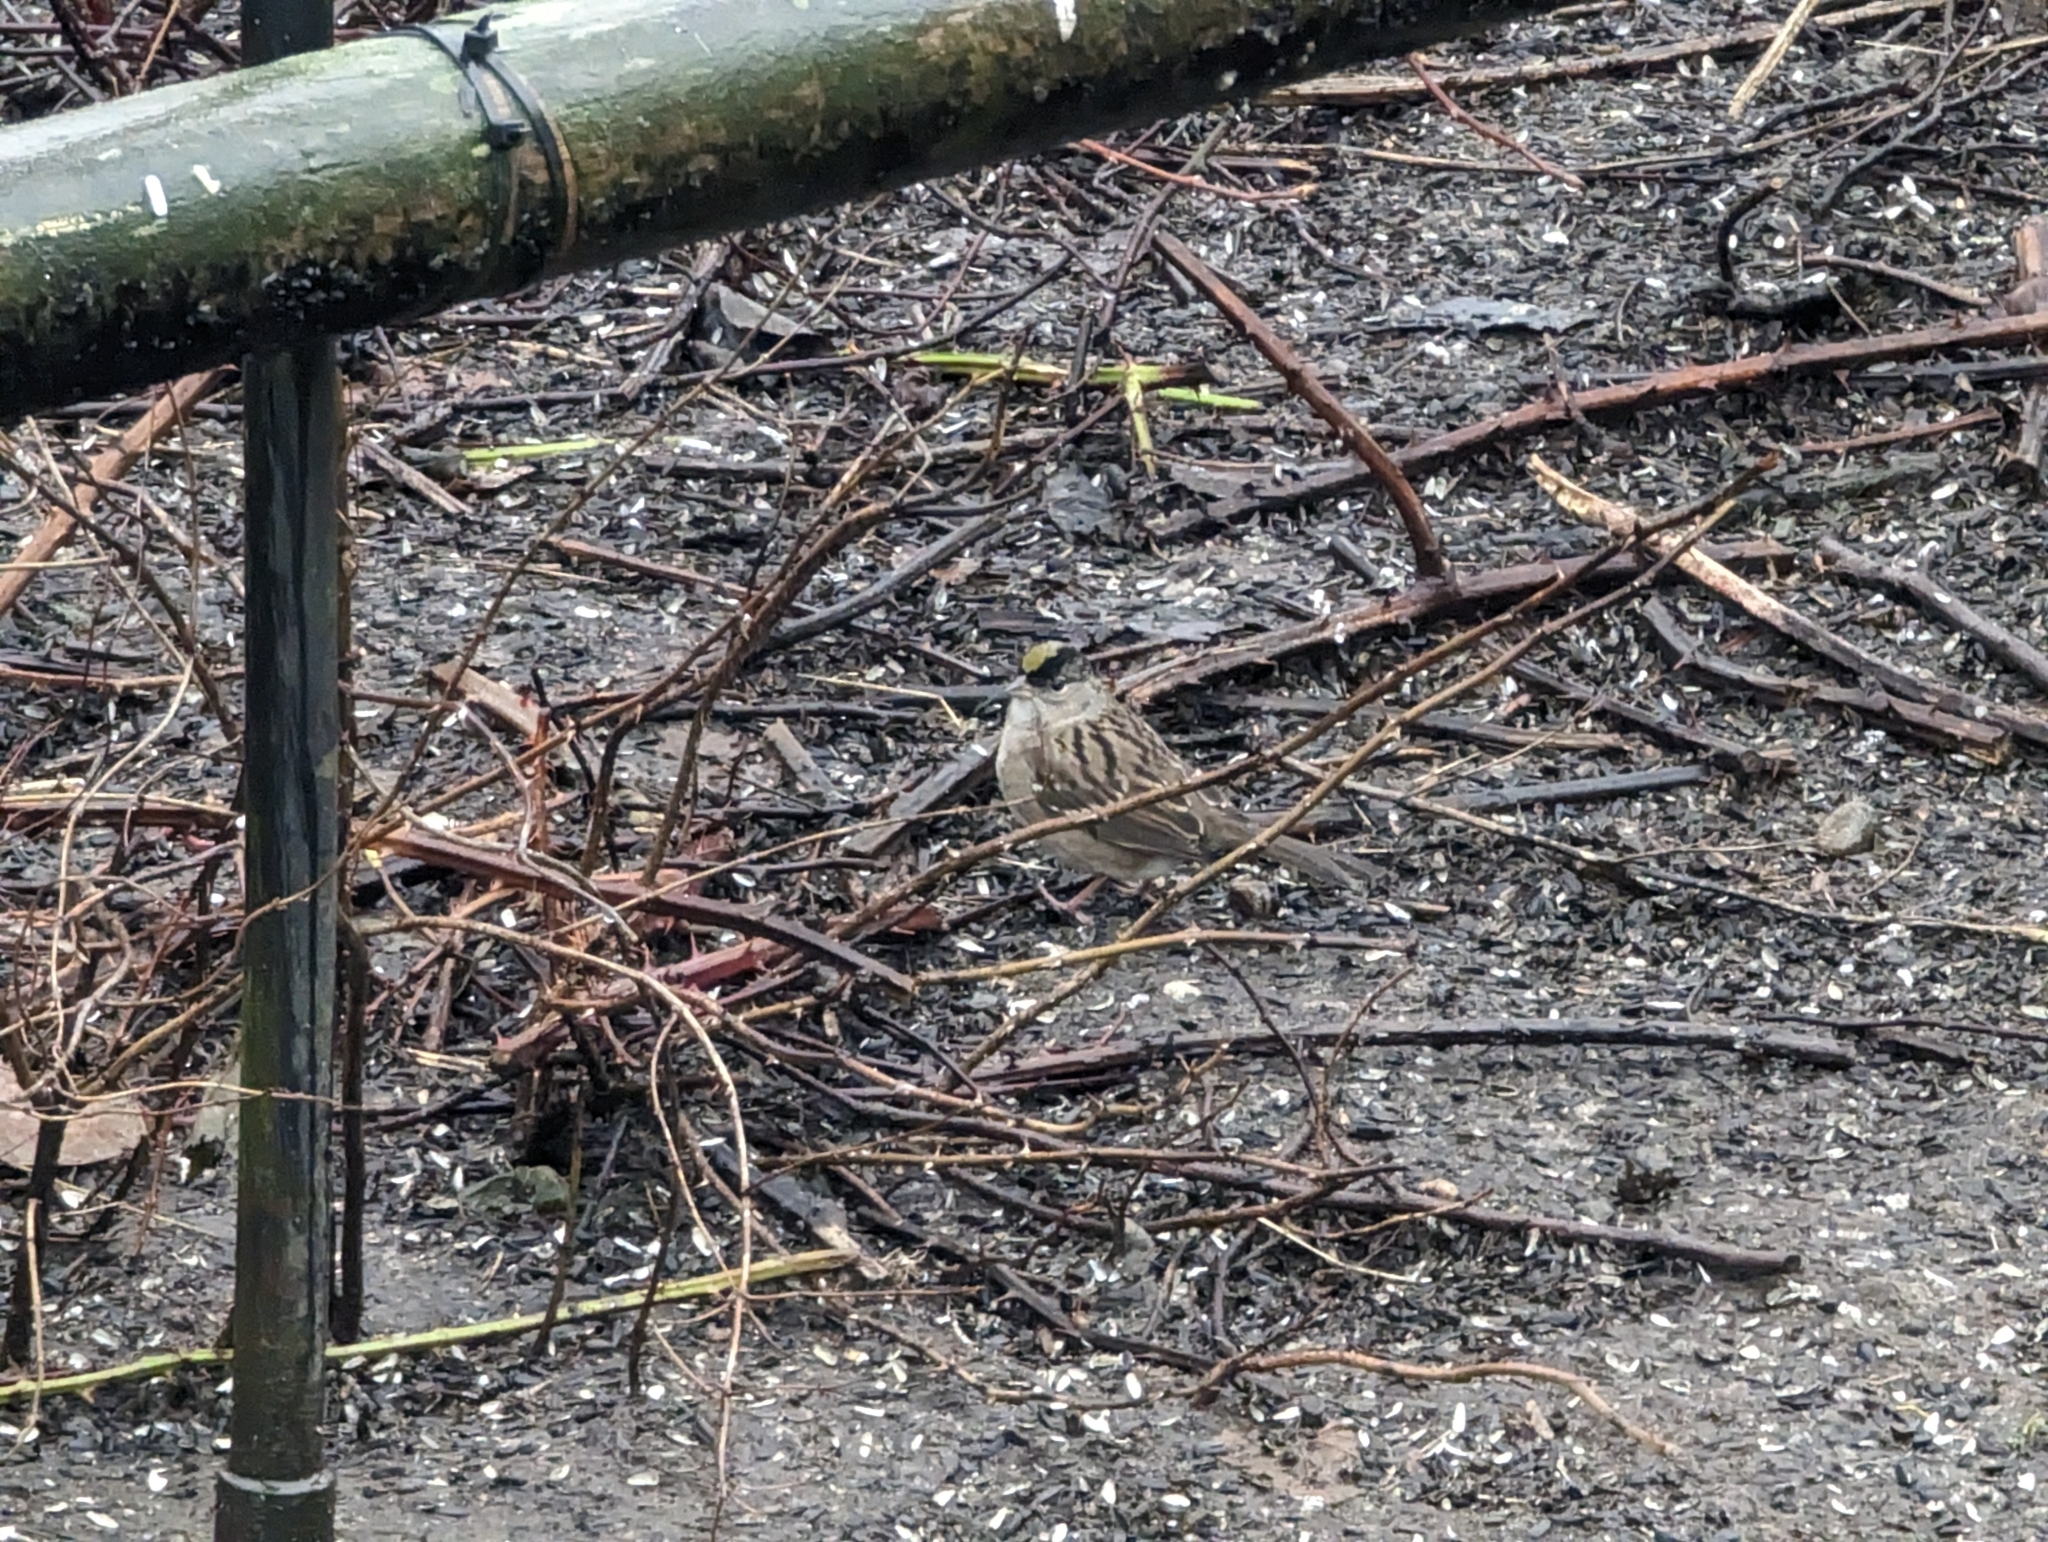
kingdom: Animalia
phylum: Chordata
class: Aves
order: Passeriformes
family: Passerellidae
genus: Zonotrichia
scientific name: Zonotrichia atricapilla
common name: Golden-crowned sparrow
